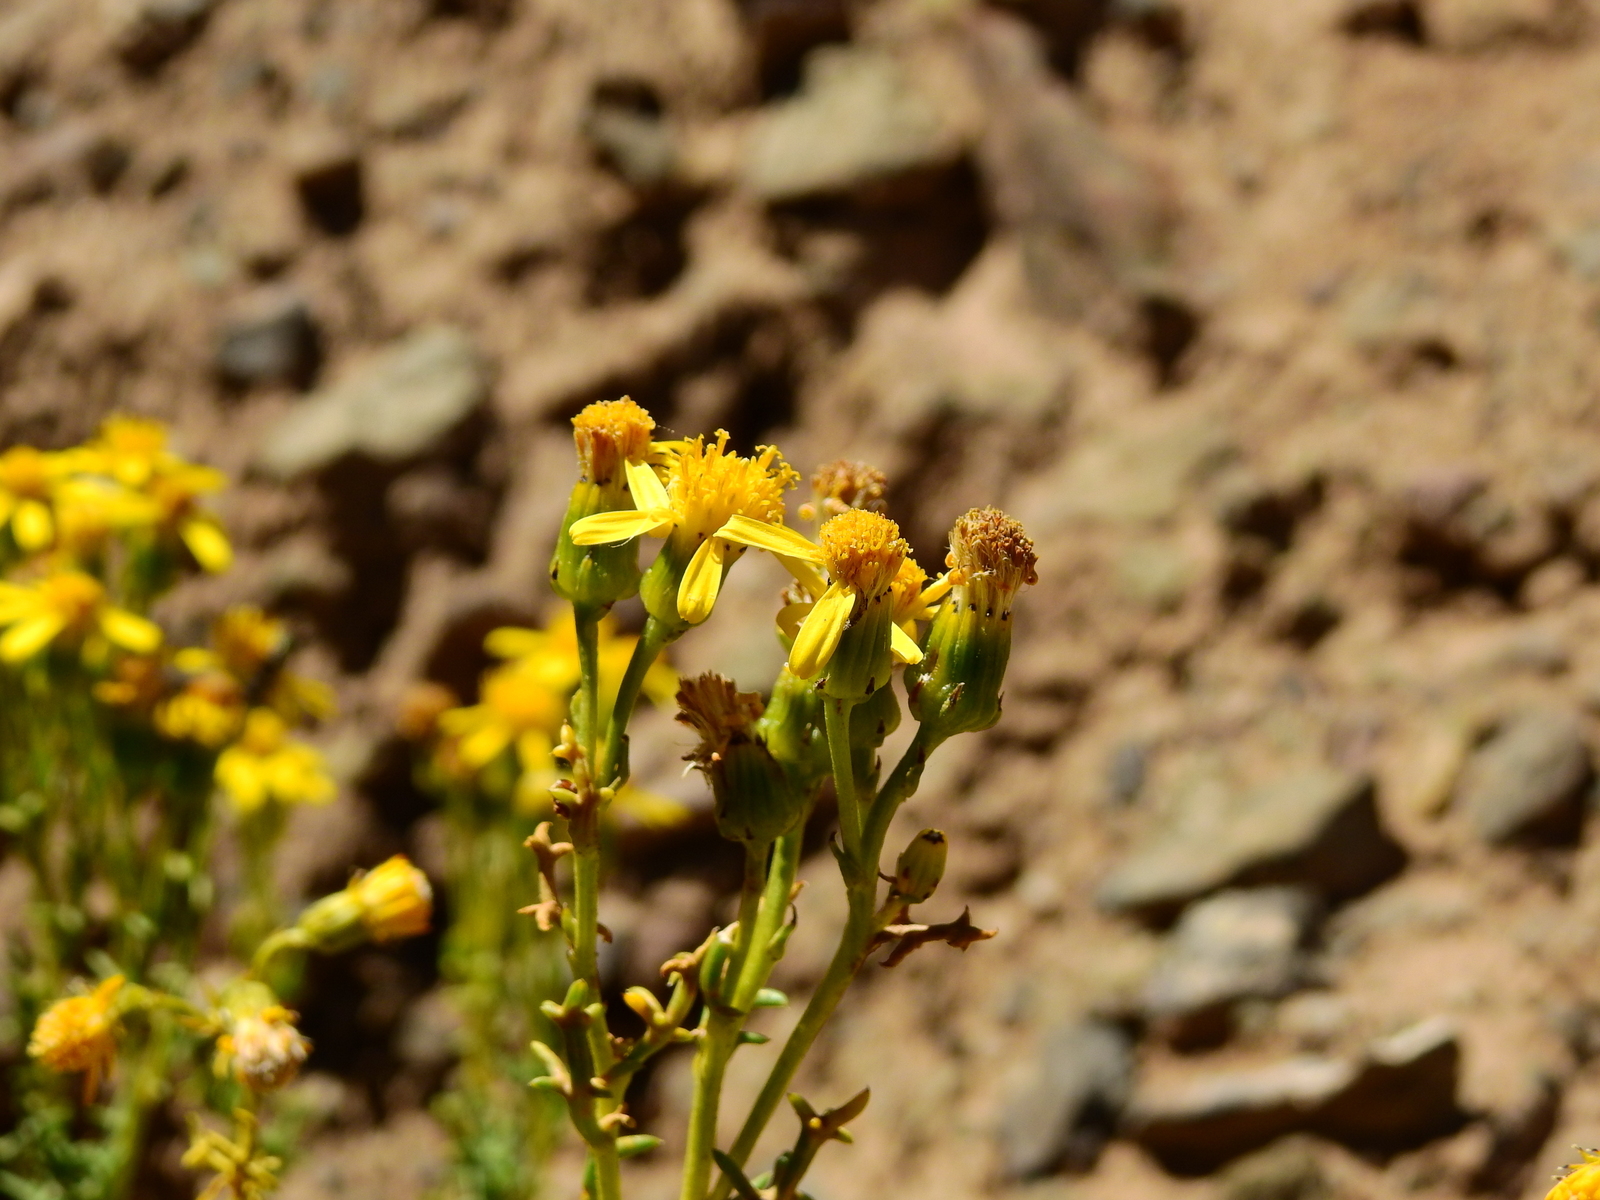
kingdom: Plantae
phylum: Tracheophyta
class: Magnoliopsida
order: Asterales
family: Asteraceae
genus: Senecio
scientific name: Senecio uspallatensis
